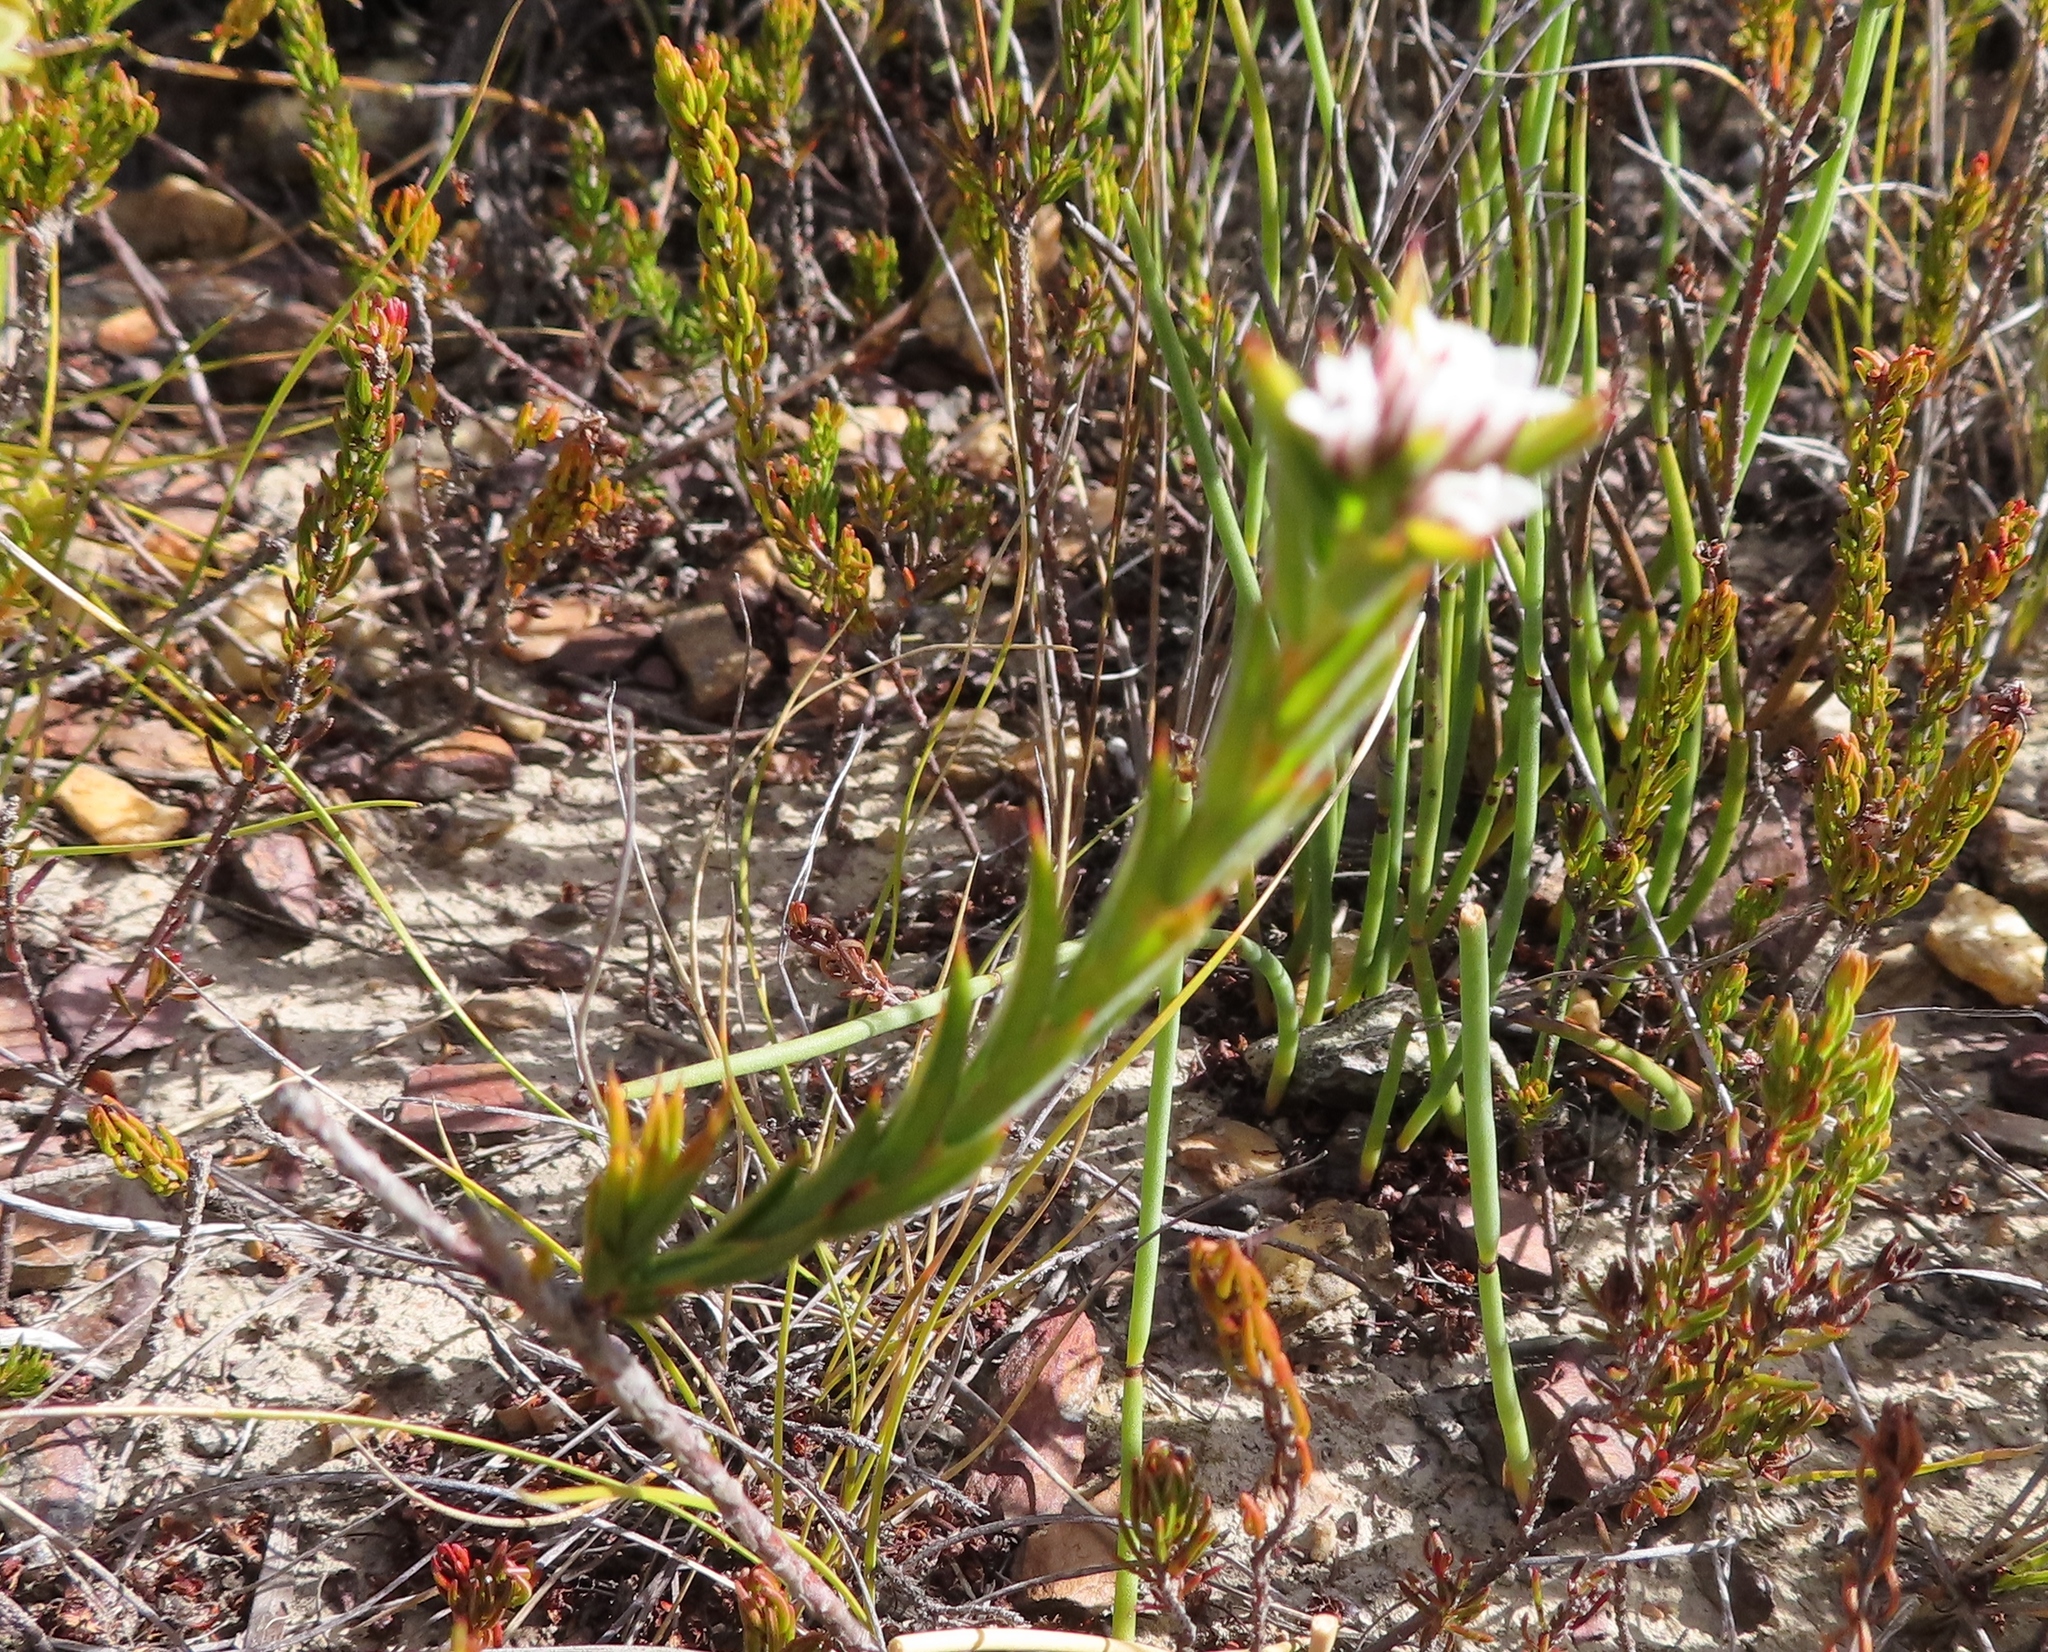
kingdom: Plantae
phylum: Tracheophyta
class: Magnoliopsida
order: Sapindales
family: Rutaceae
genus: Euchaetis
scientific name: Euchaetis schlechteri
